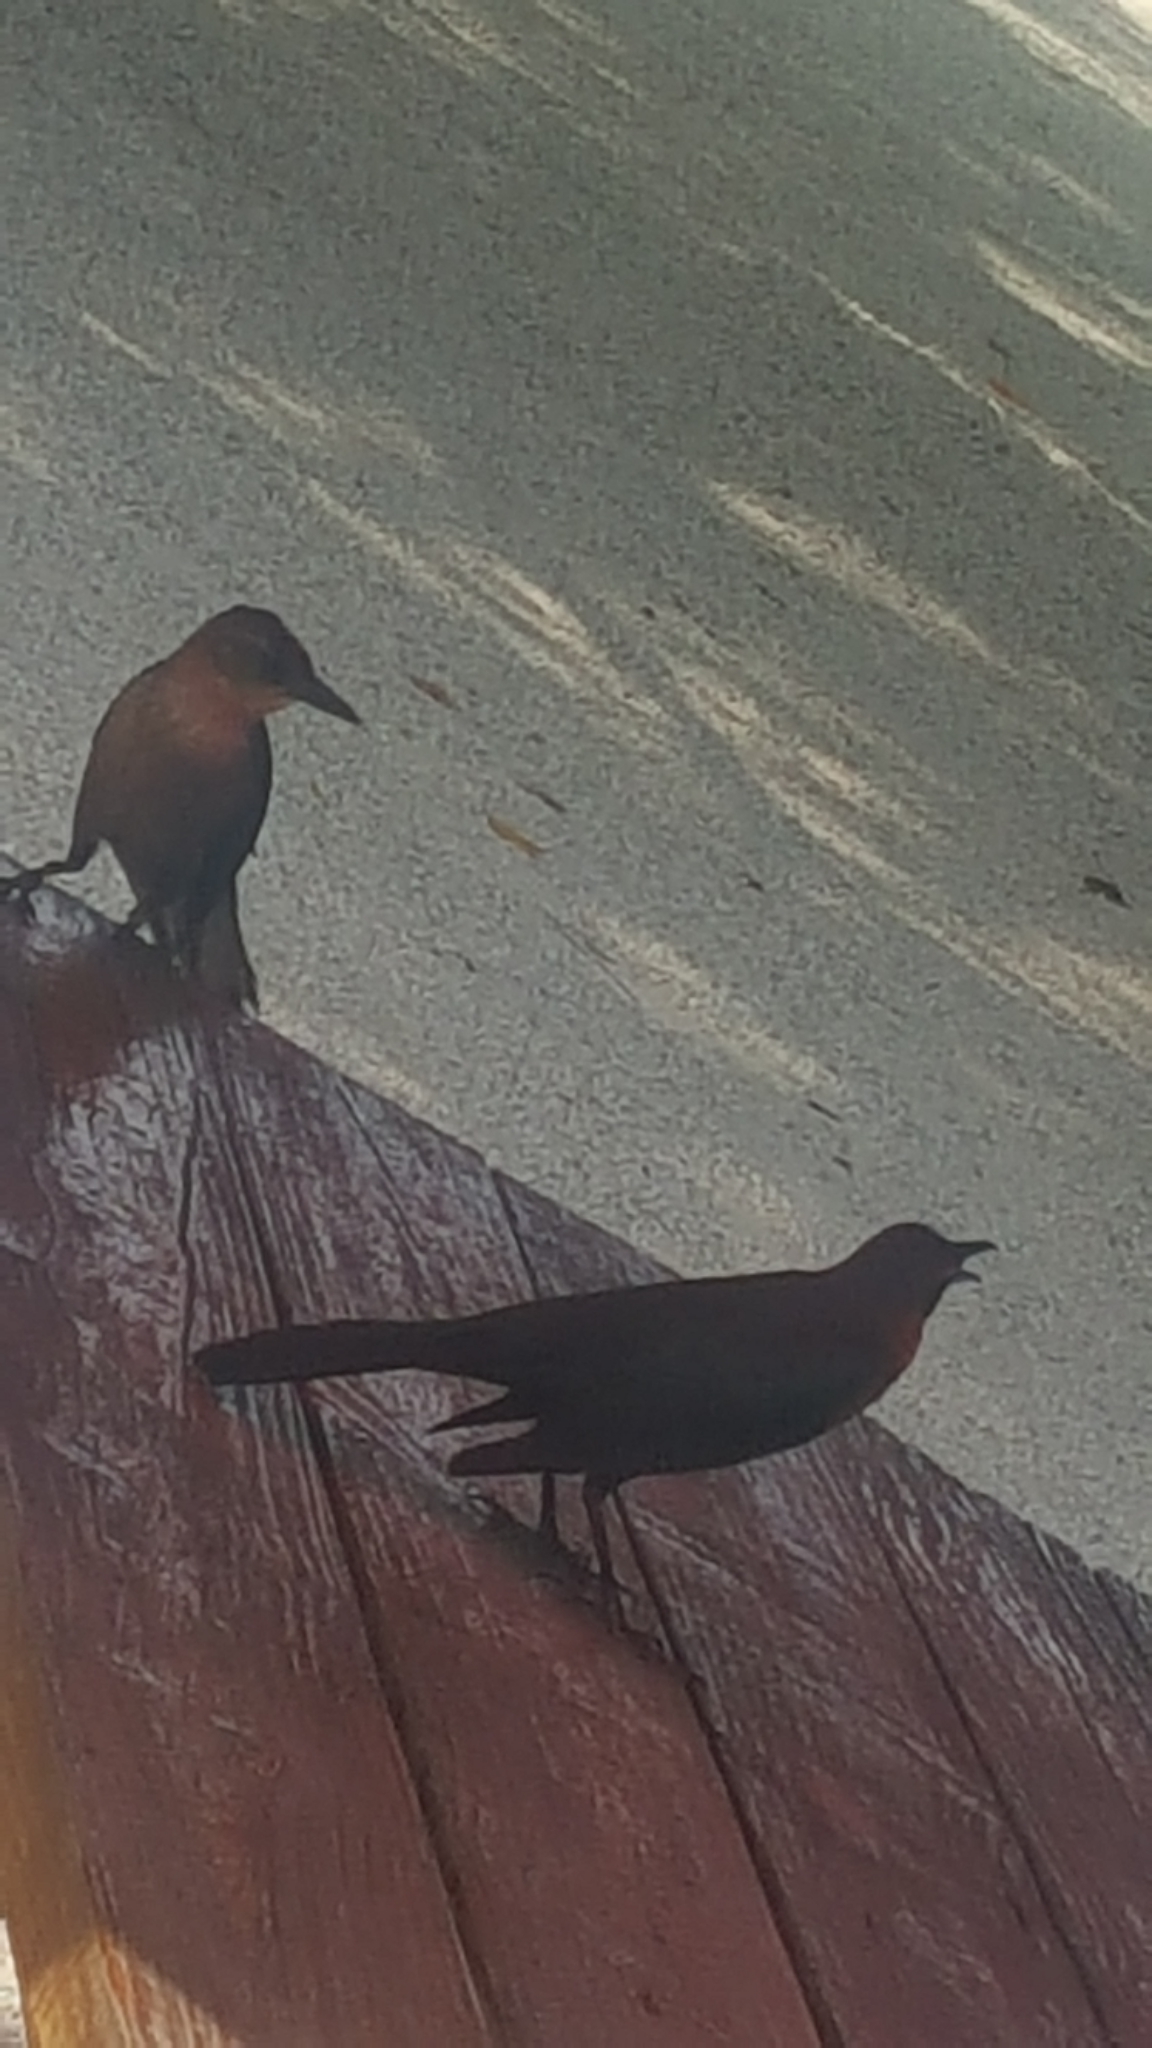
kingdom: Animalia
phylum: Chordata
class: Aves
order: Passeriformes
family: Icteridae
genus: Quiscalus
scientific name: Quiscalus major
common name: Boat-tailed grackle
